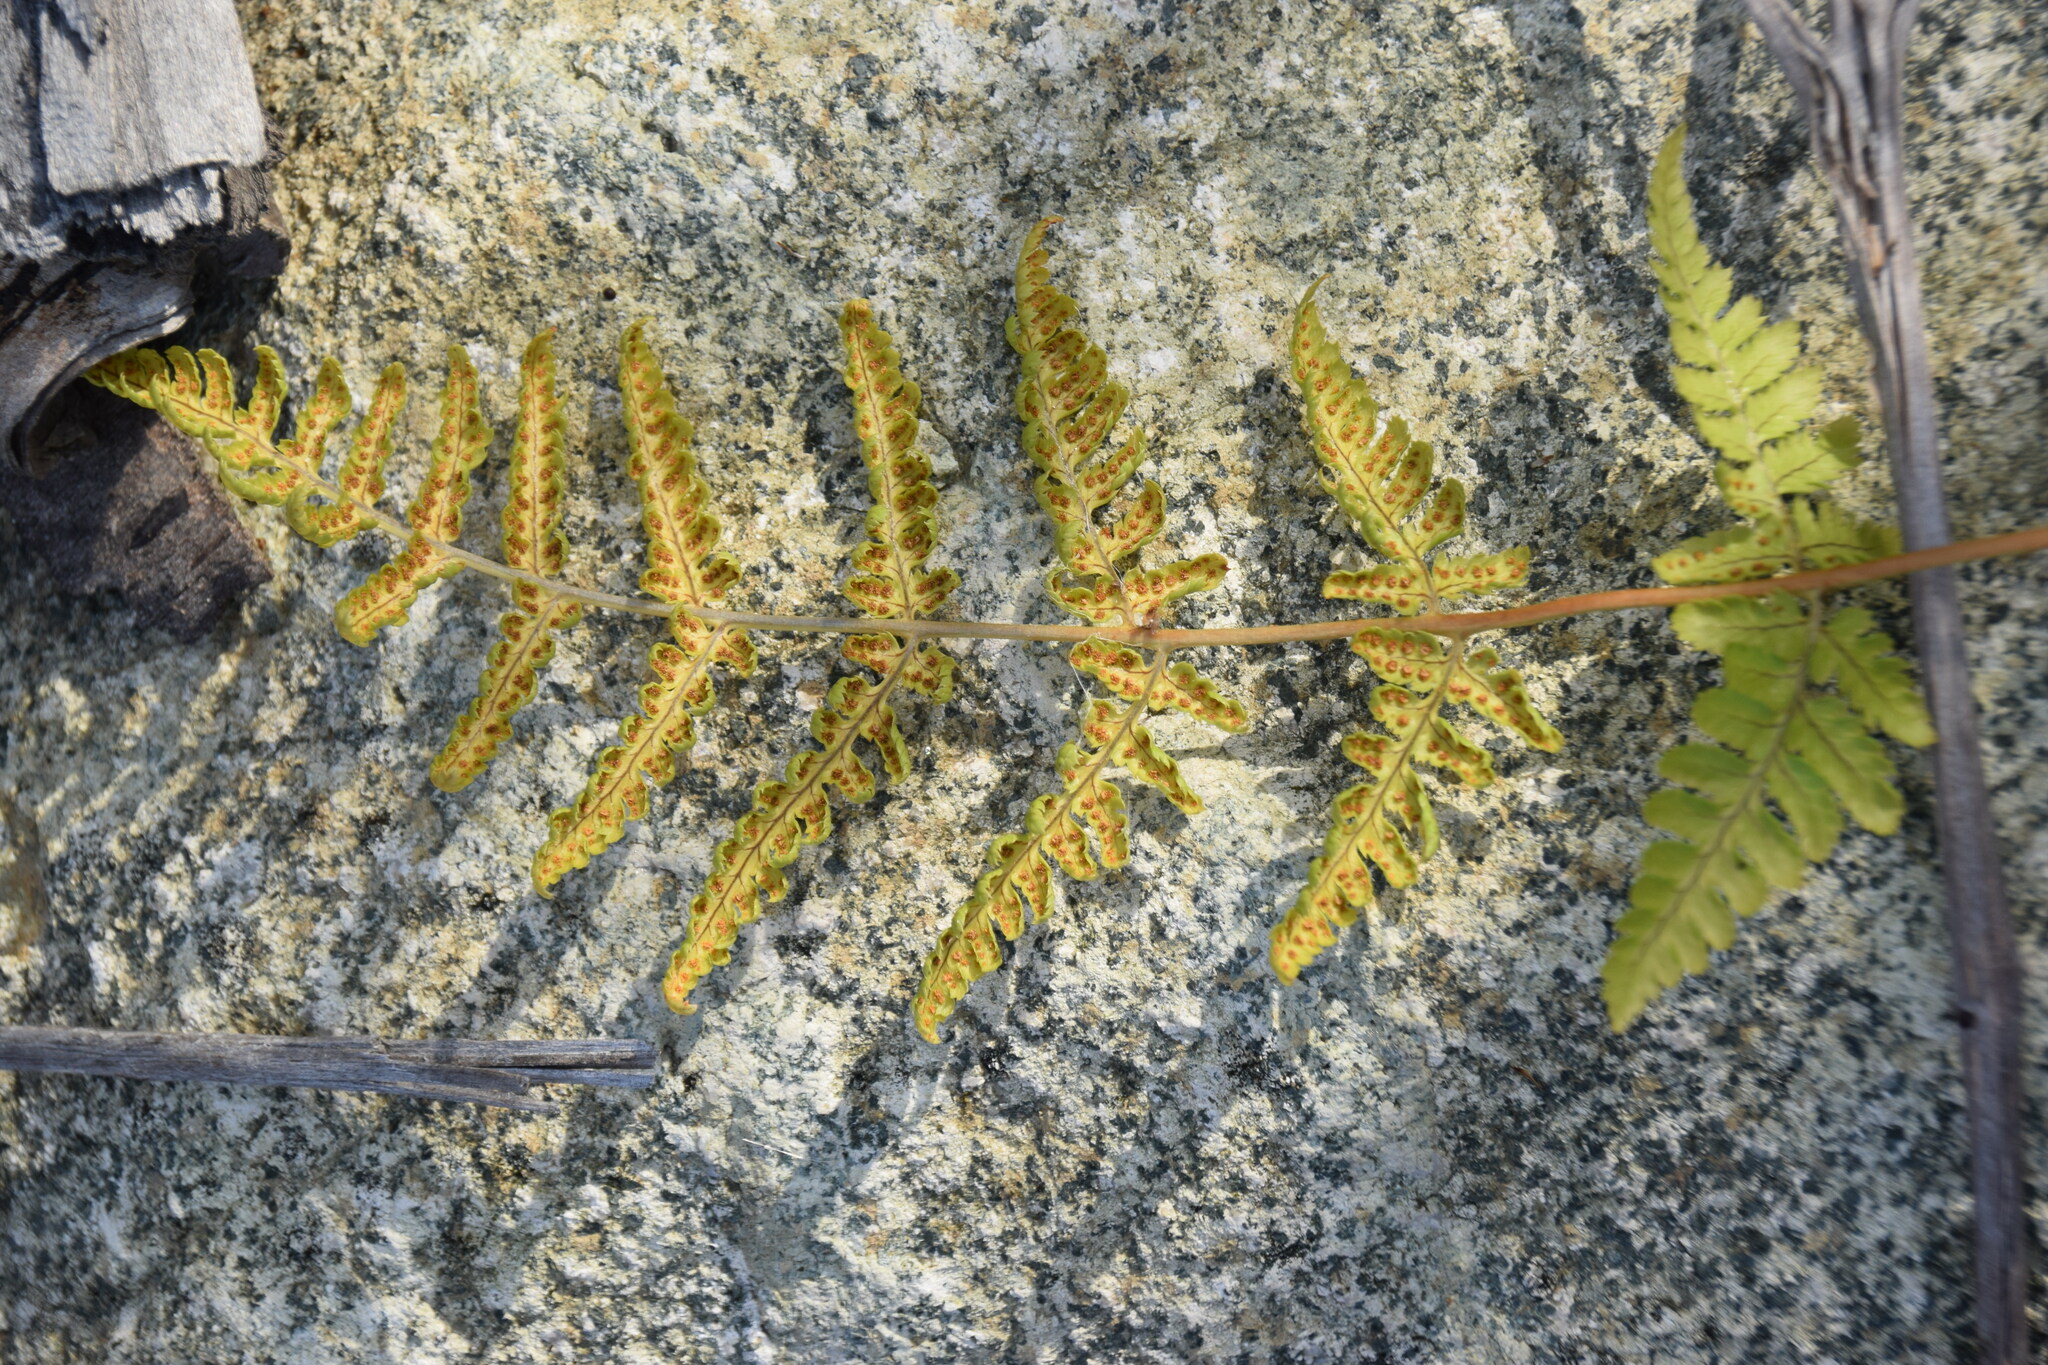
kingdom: Plantae
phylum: Tracheophyta
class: Polypodiopsida
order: Polypodiales
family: Dryopteridaceae
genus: Dryopteris
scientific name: Dryopteris carthusiana
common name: Narrow buckler-fern
